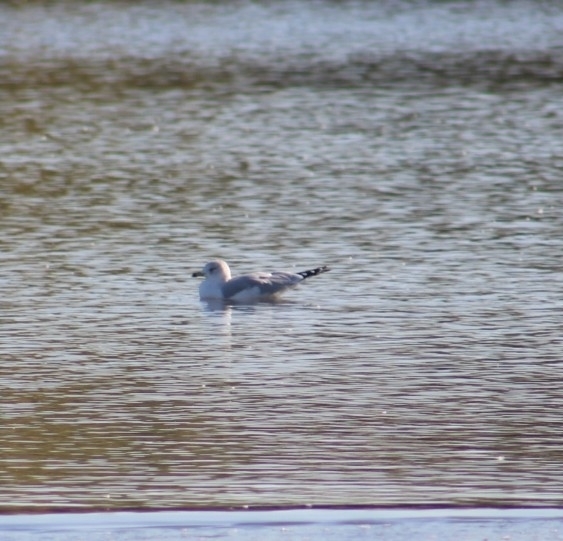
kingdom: Animalia
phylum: Chordata
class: Aves
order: Charadriiformes
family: Laridae
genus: Larus
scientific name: Larus delawarensis
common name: Ring-billed gull
